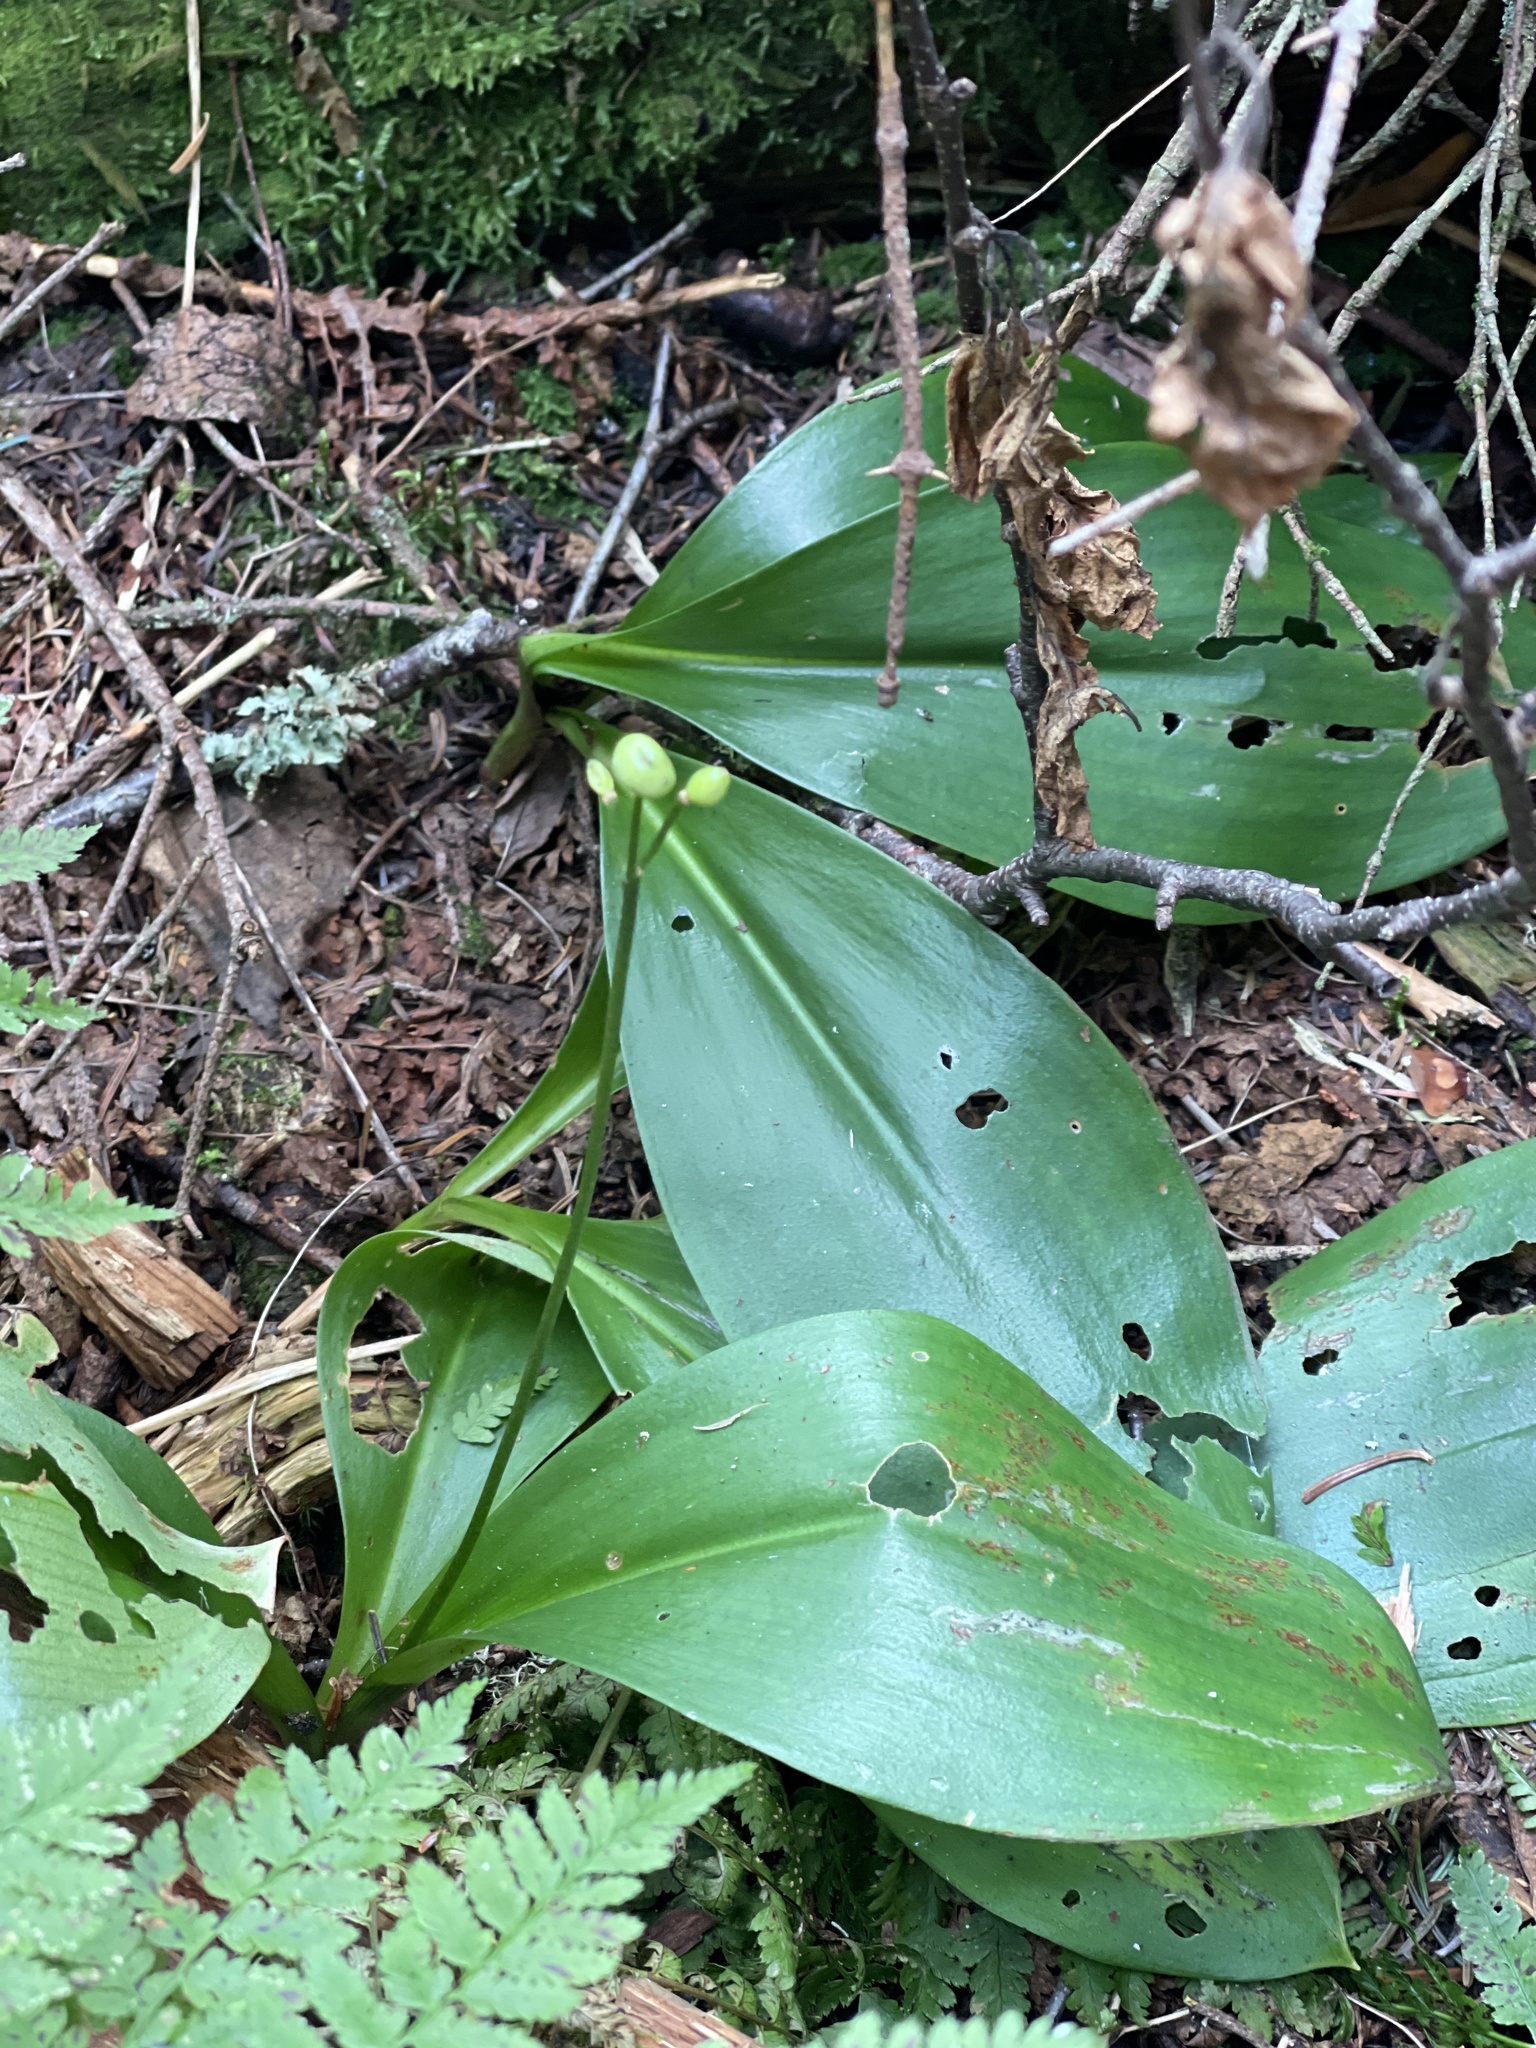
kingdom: Plantae
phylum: Tracheophyta
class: Liliopsida
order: Liliales
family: Liliaceae
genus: Clintonia
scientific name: Clintonia borealis
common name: Yellow clintonia
